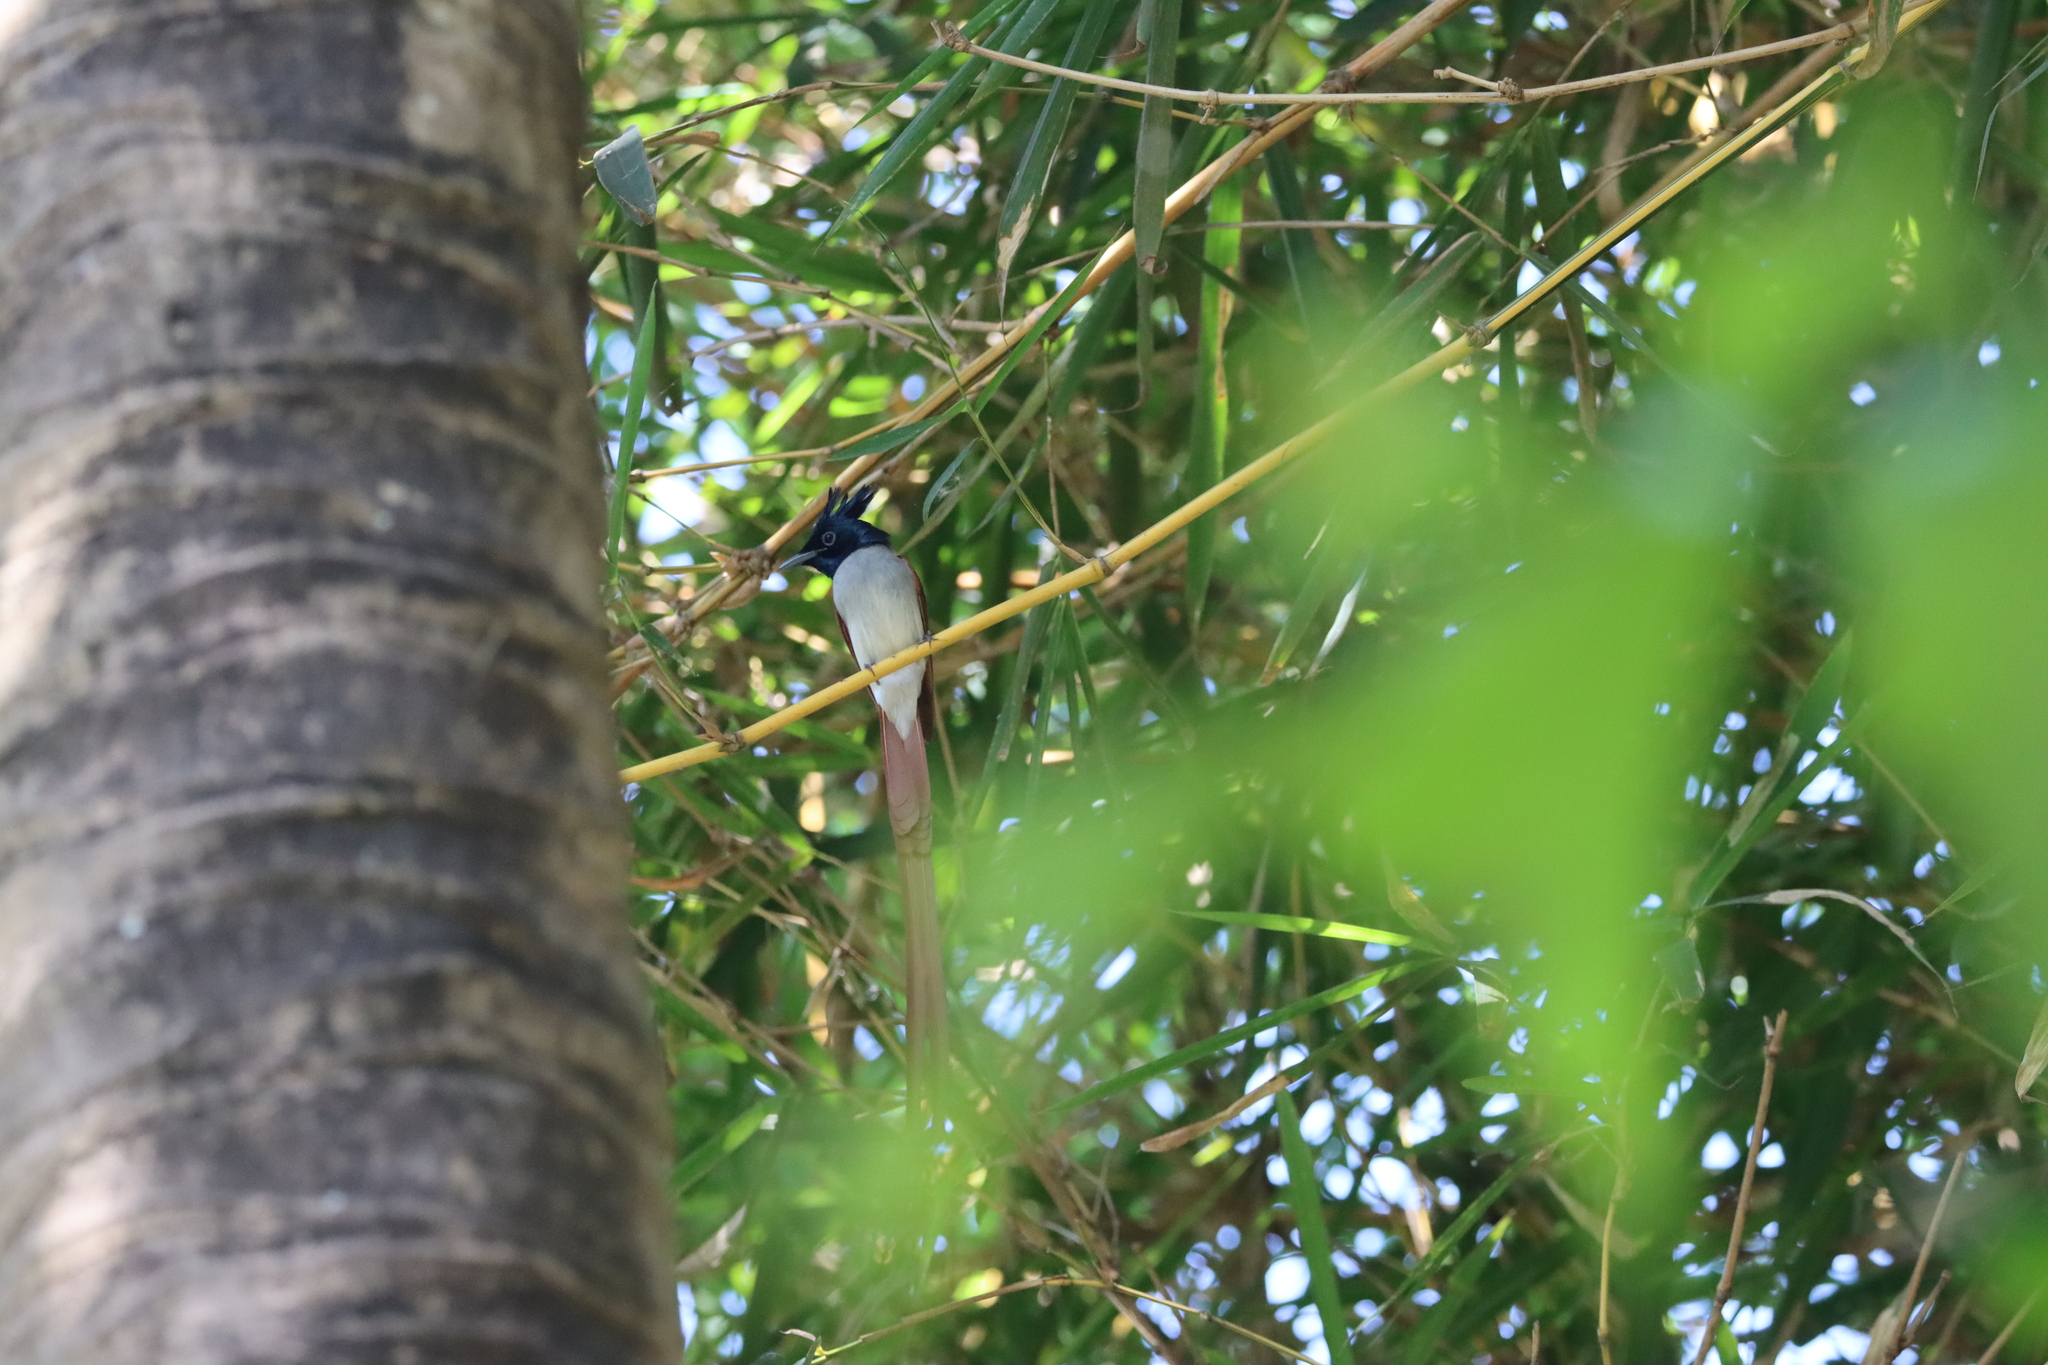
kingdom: Animalia
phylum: Chordata
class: Aves
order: Passeriformes
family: Monarchidae
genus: Terpsiphone
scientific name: Terpsiphone paradisi
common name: Indian paradise flycatcher
